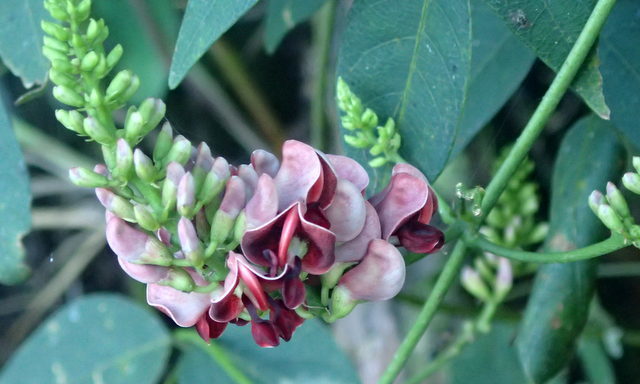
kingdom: Plantae
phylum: Tracheophyta
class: Magnoliopsida
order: Fabales
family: Fabaceae
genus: Apios
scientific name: Apios americana
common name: American potato-bean
